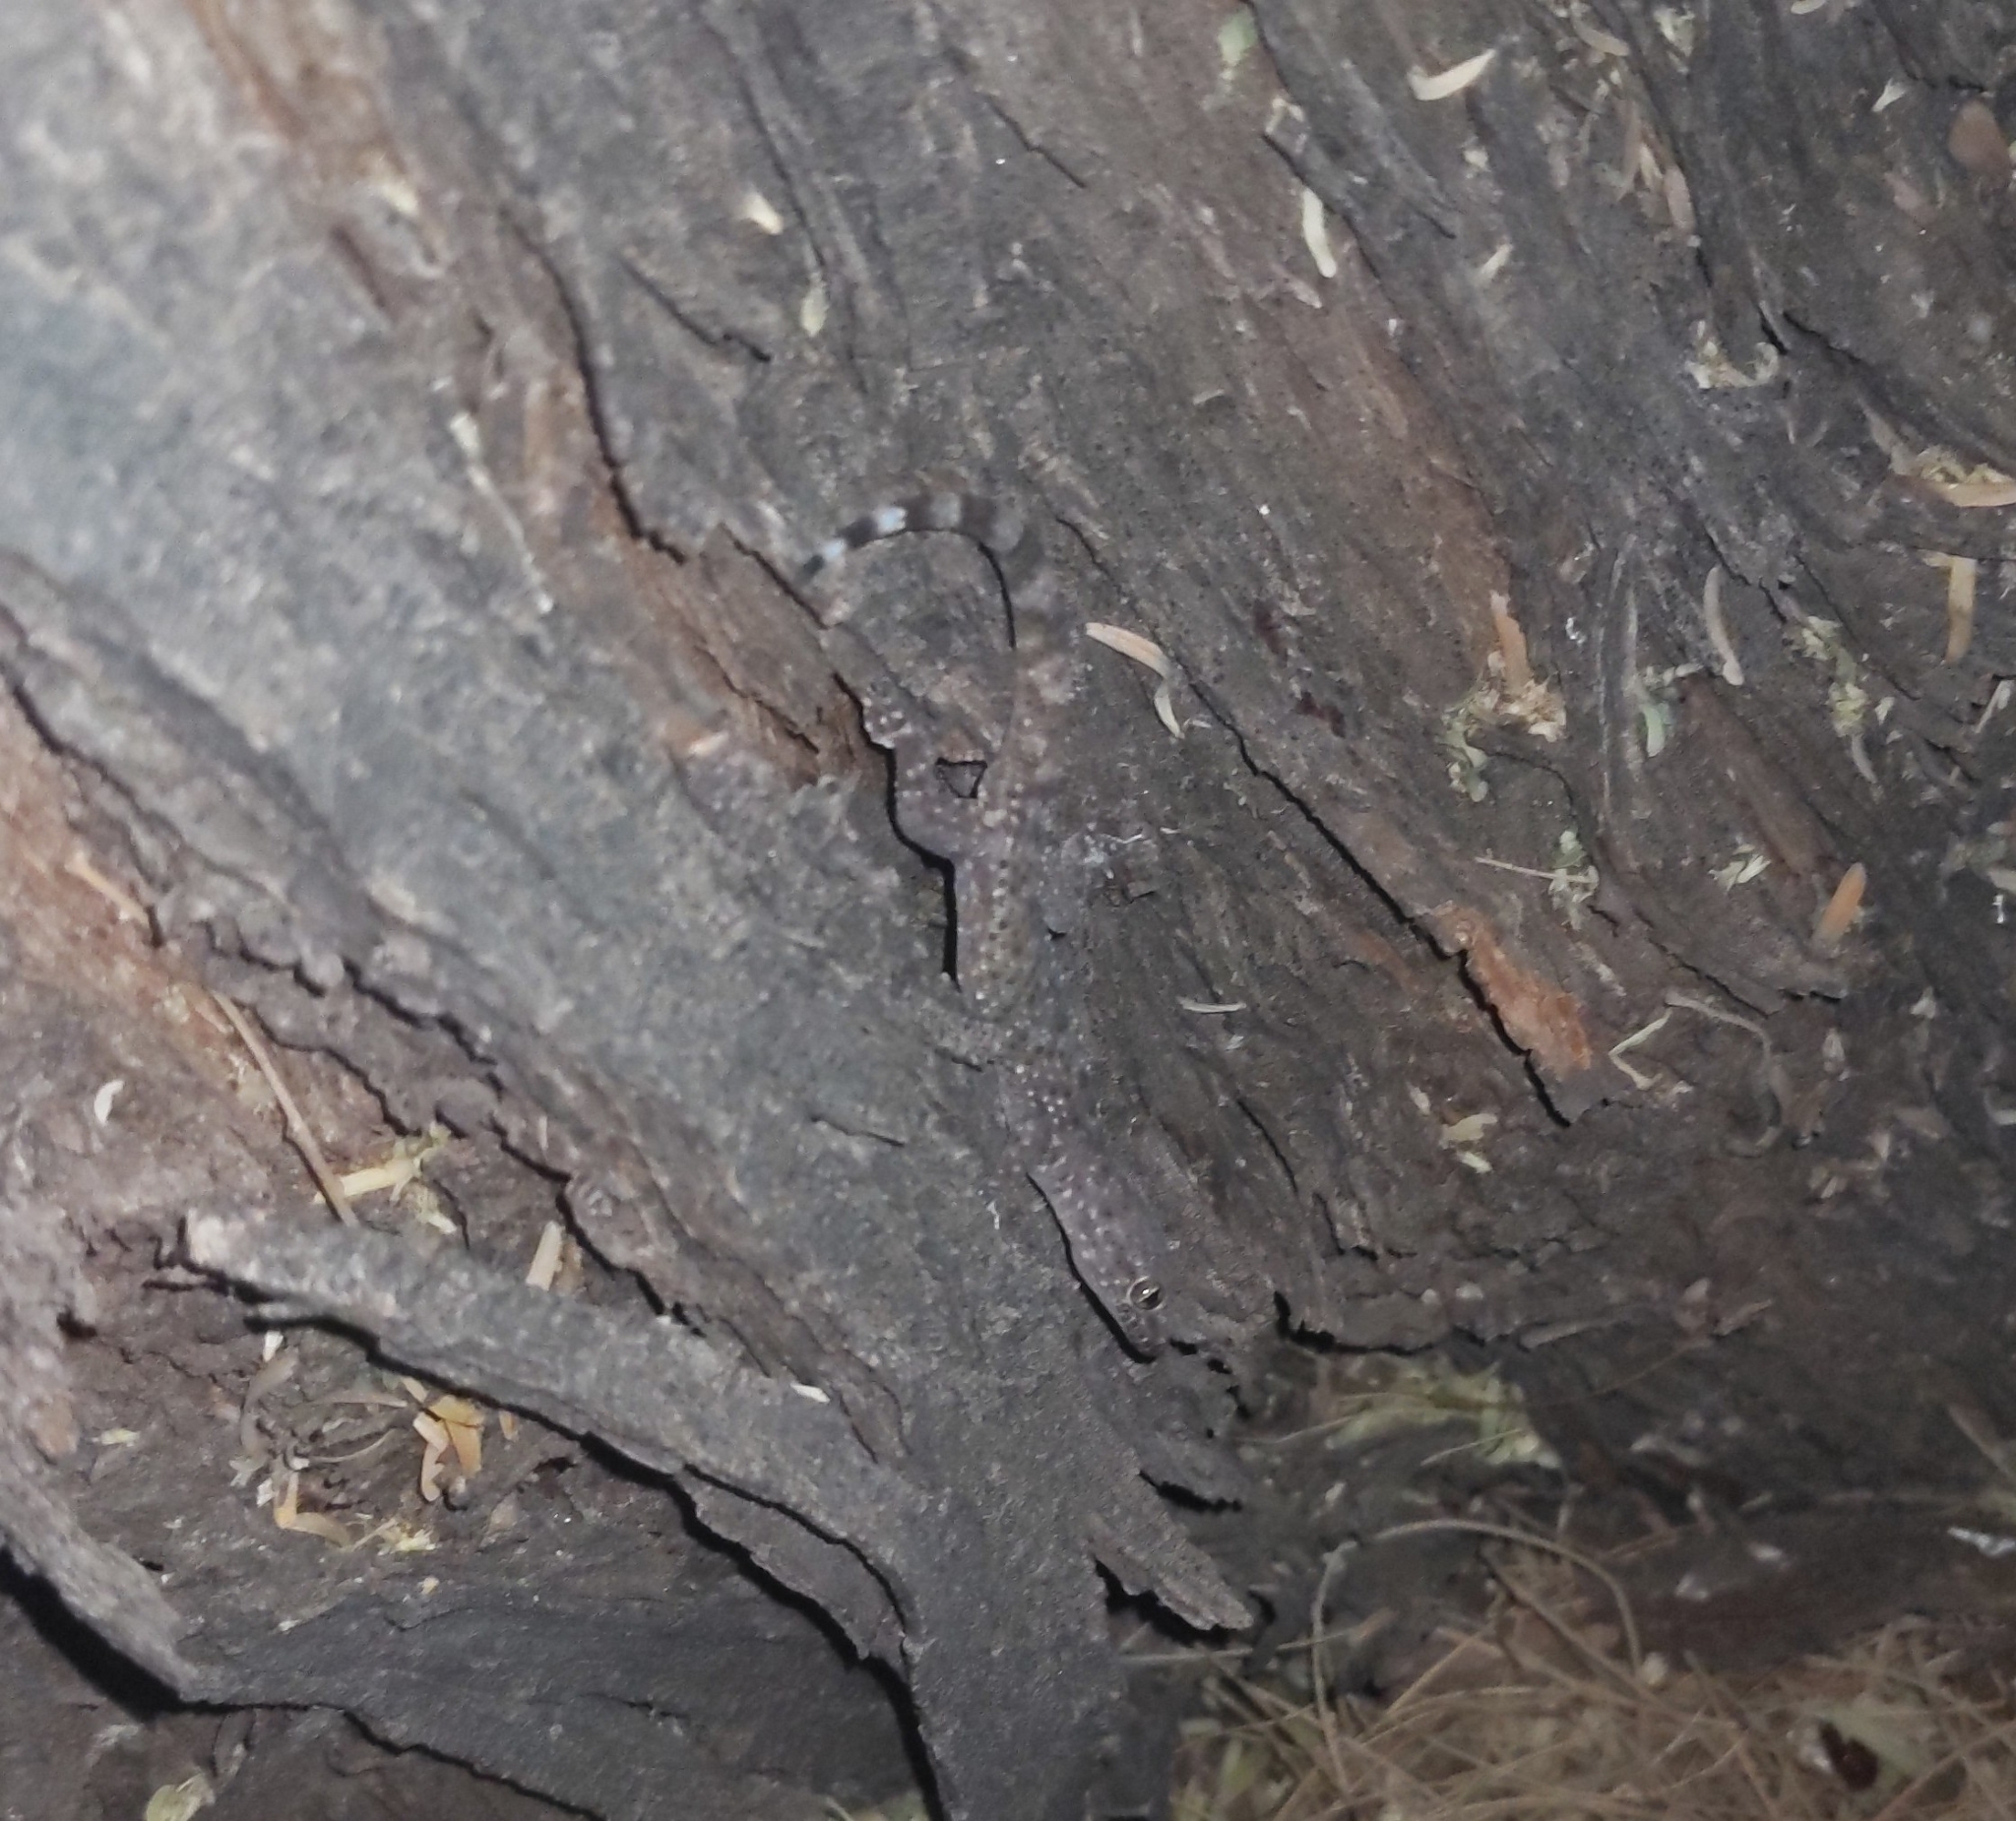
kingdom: Animalia
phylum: Chordata
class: Squamata
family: Gekkonidae
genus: Hemidactylus
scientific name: Hemidactylus turcicus
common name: Turkish gecko
